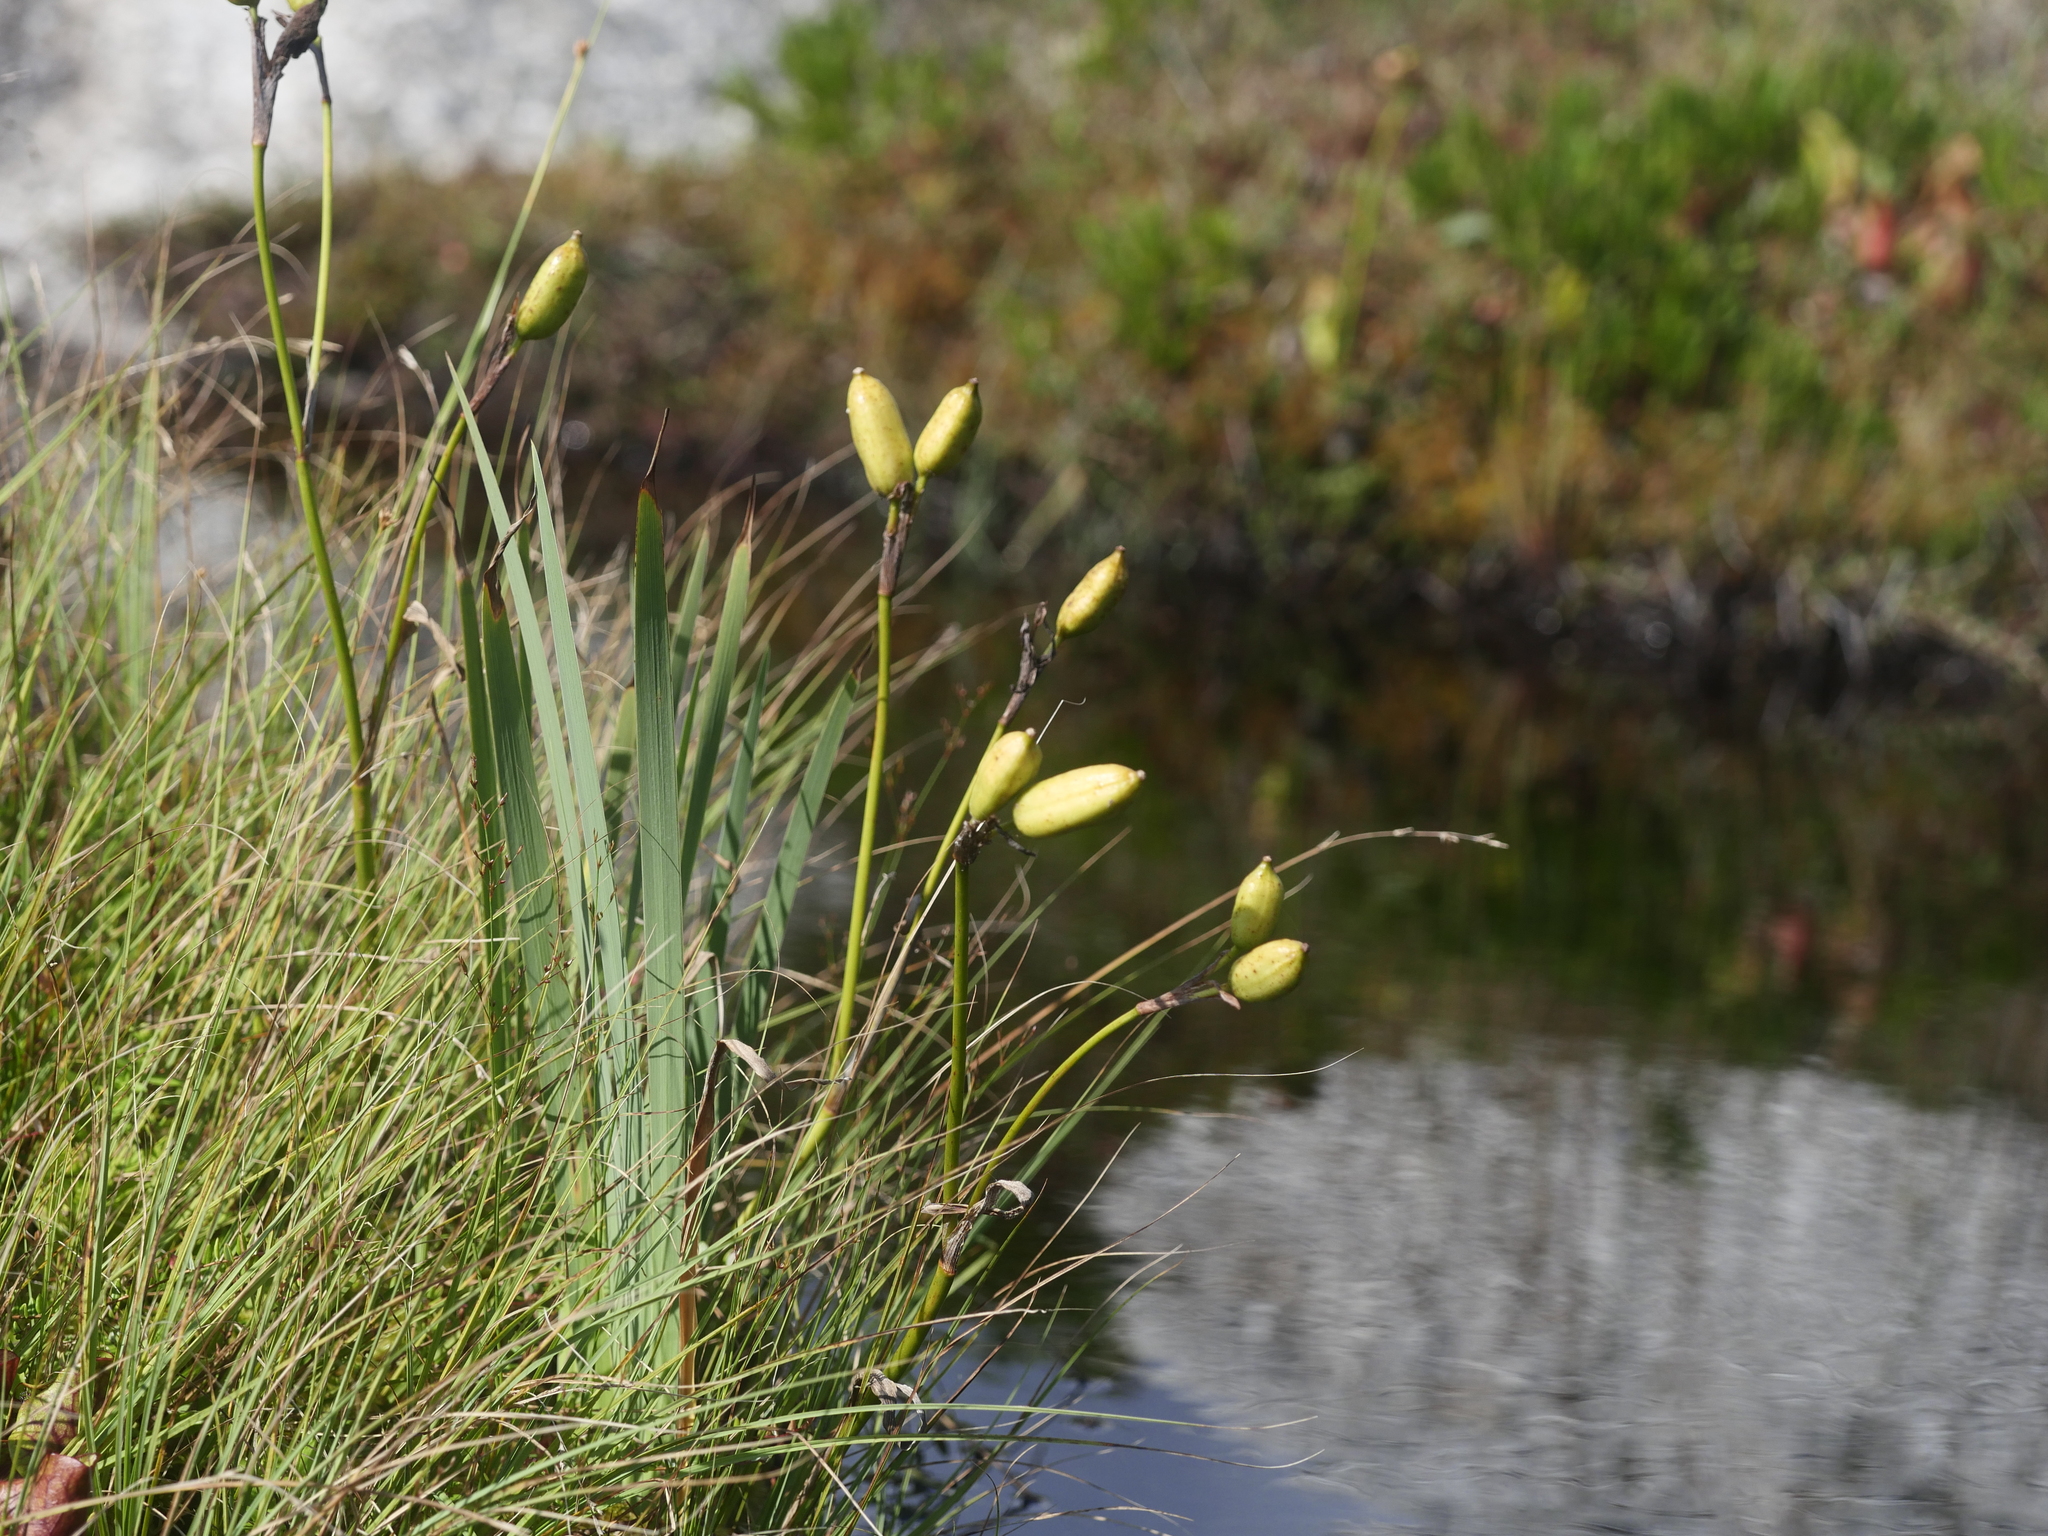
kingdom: Plantae
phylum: Tracheophyta
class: Liliopsida
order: Asparagales
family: Iridaceae
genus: Iris
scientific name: Iris versicolor
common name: Purple iris
